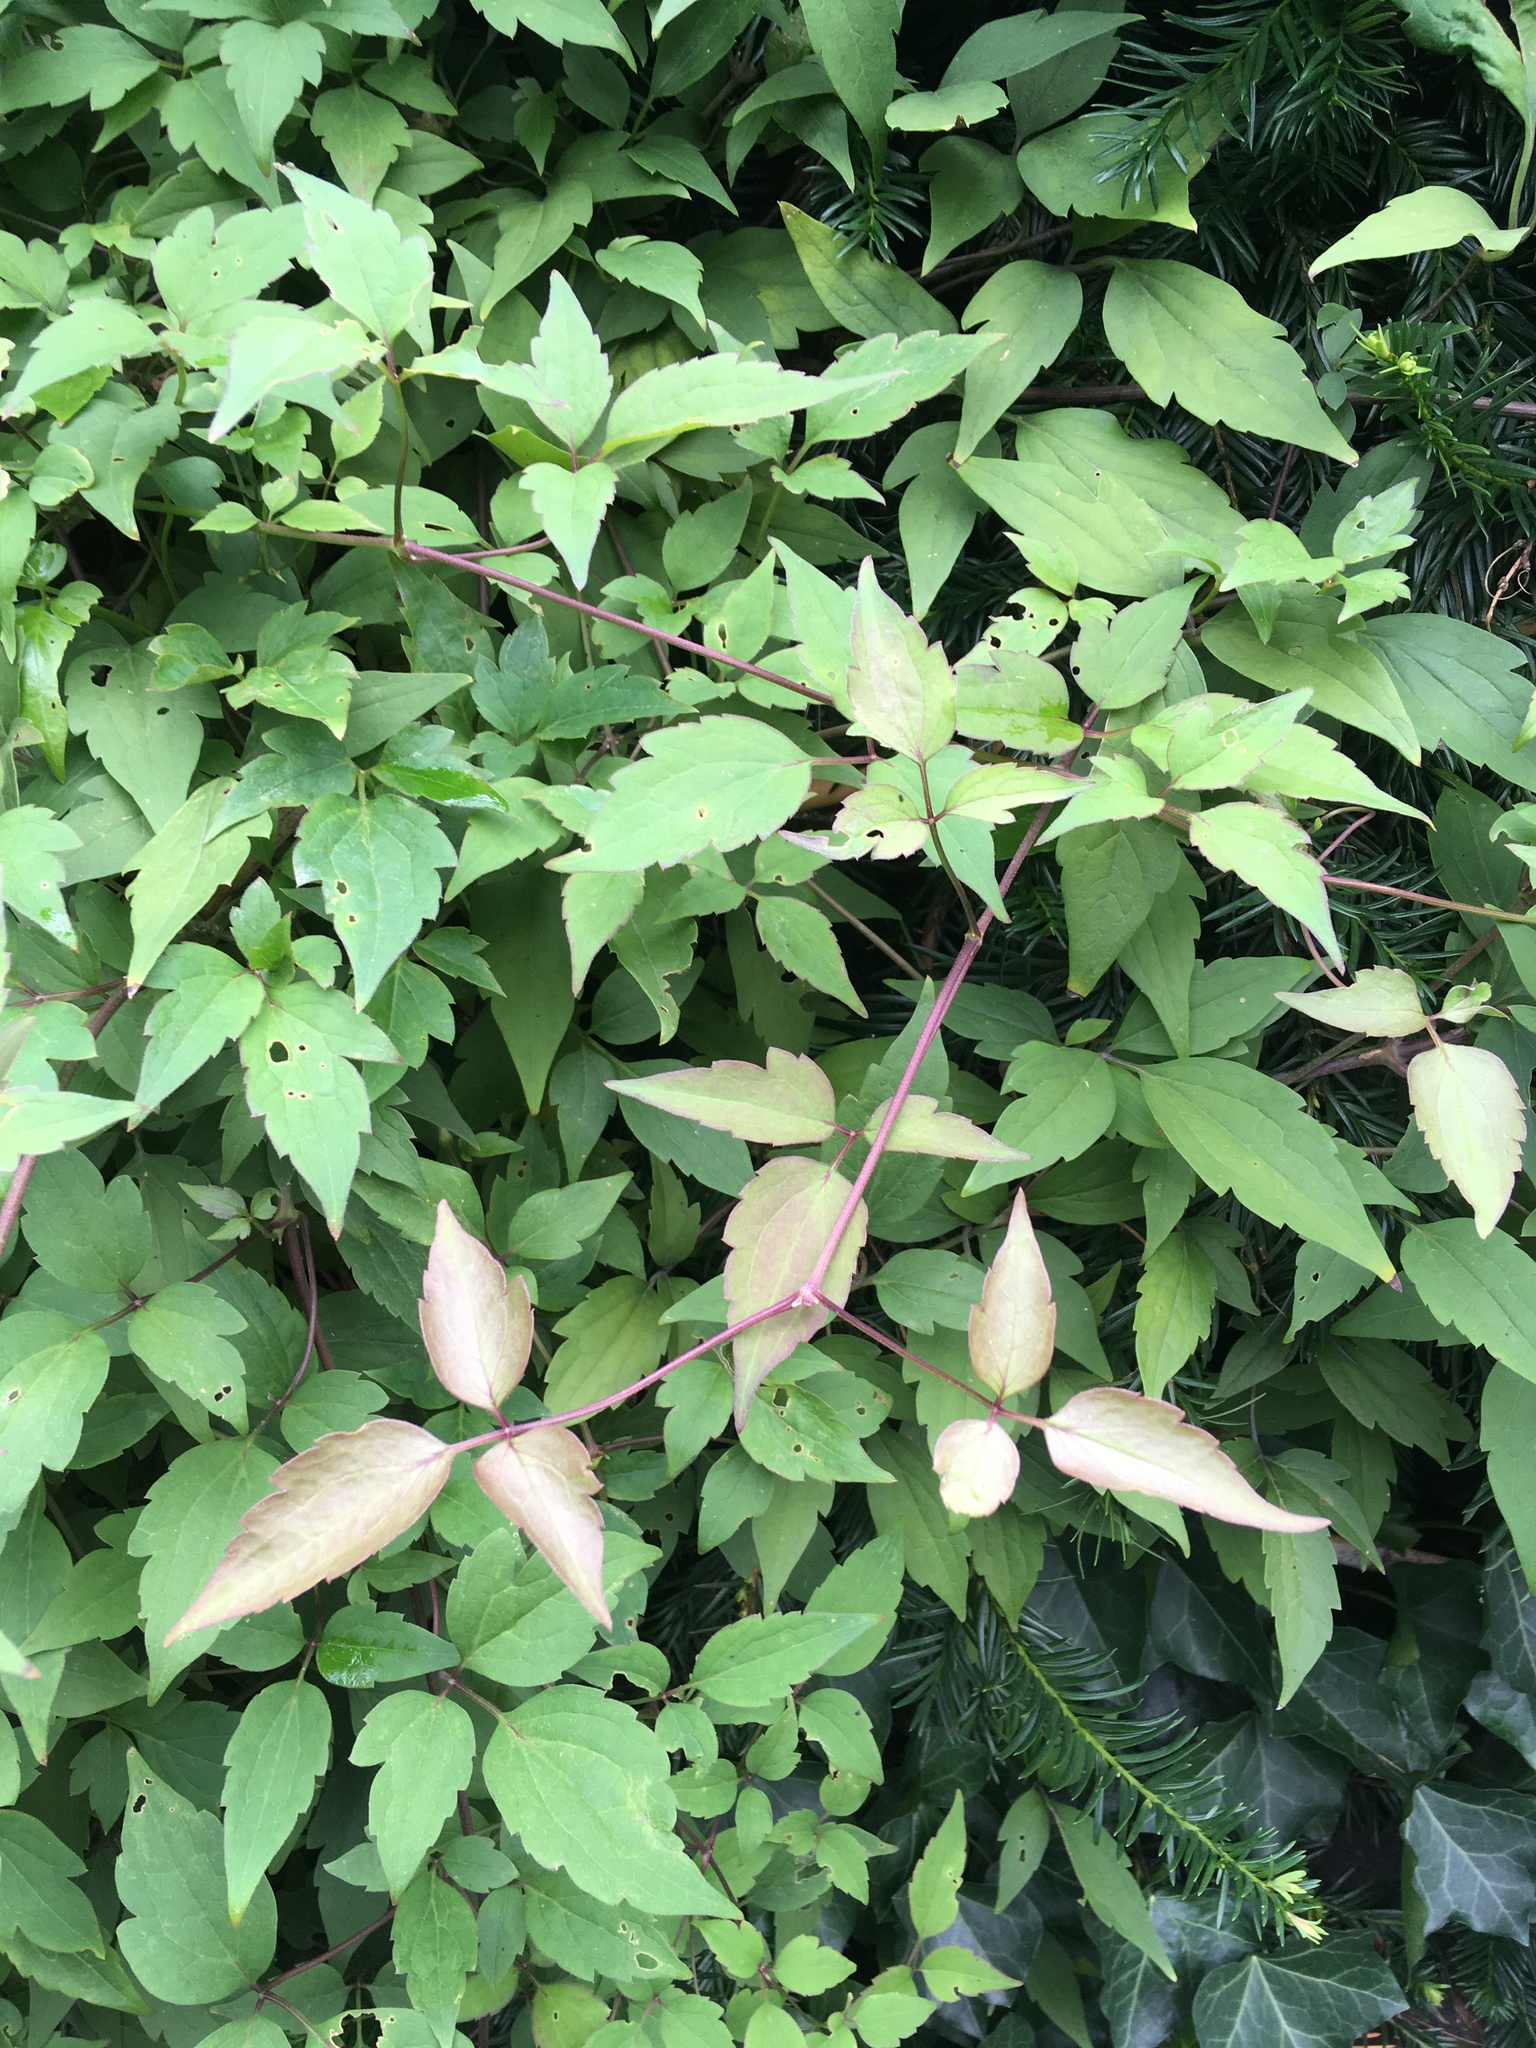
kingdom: Plantae
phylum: Tracheophyta
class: Magnoliopsida
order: Ranunculales
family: Ranunculaceae
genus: Clematis
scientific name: Clematis virginiana
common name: Virgin's-bower
